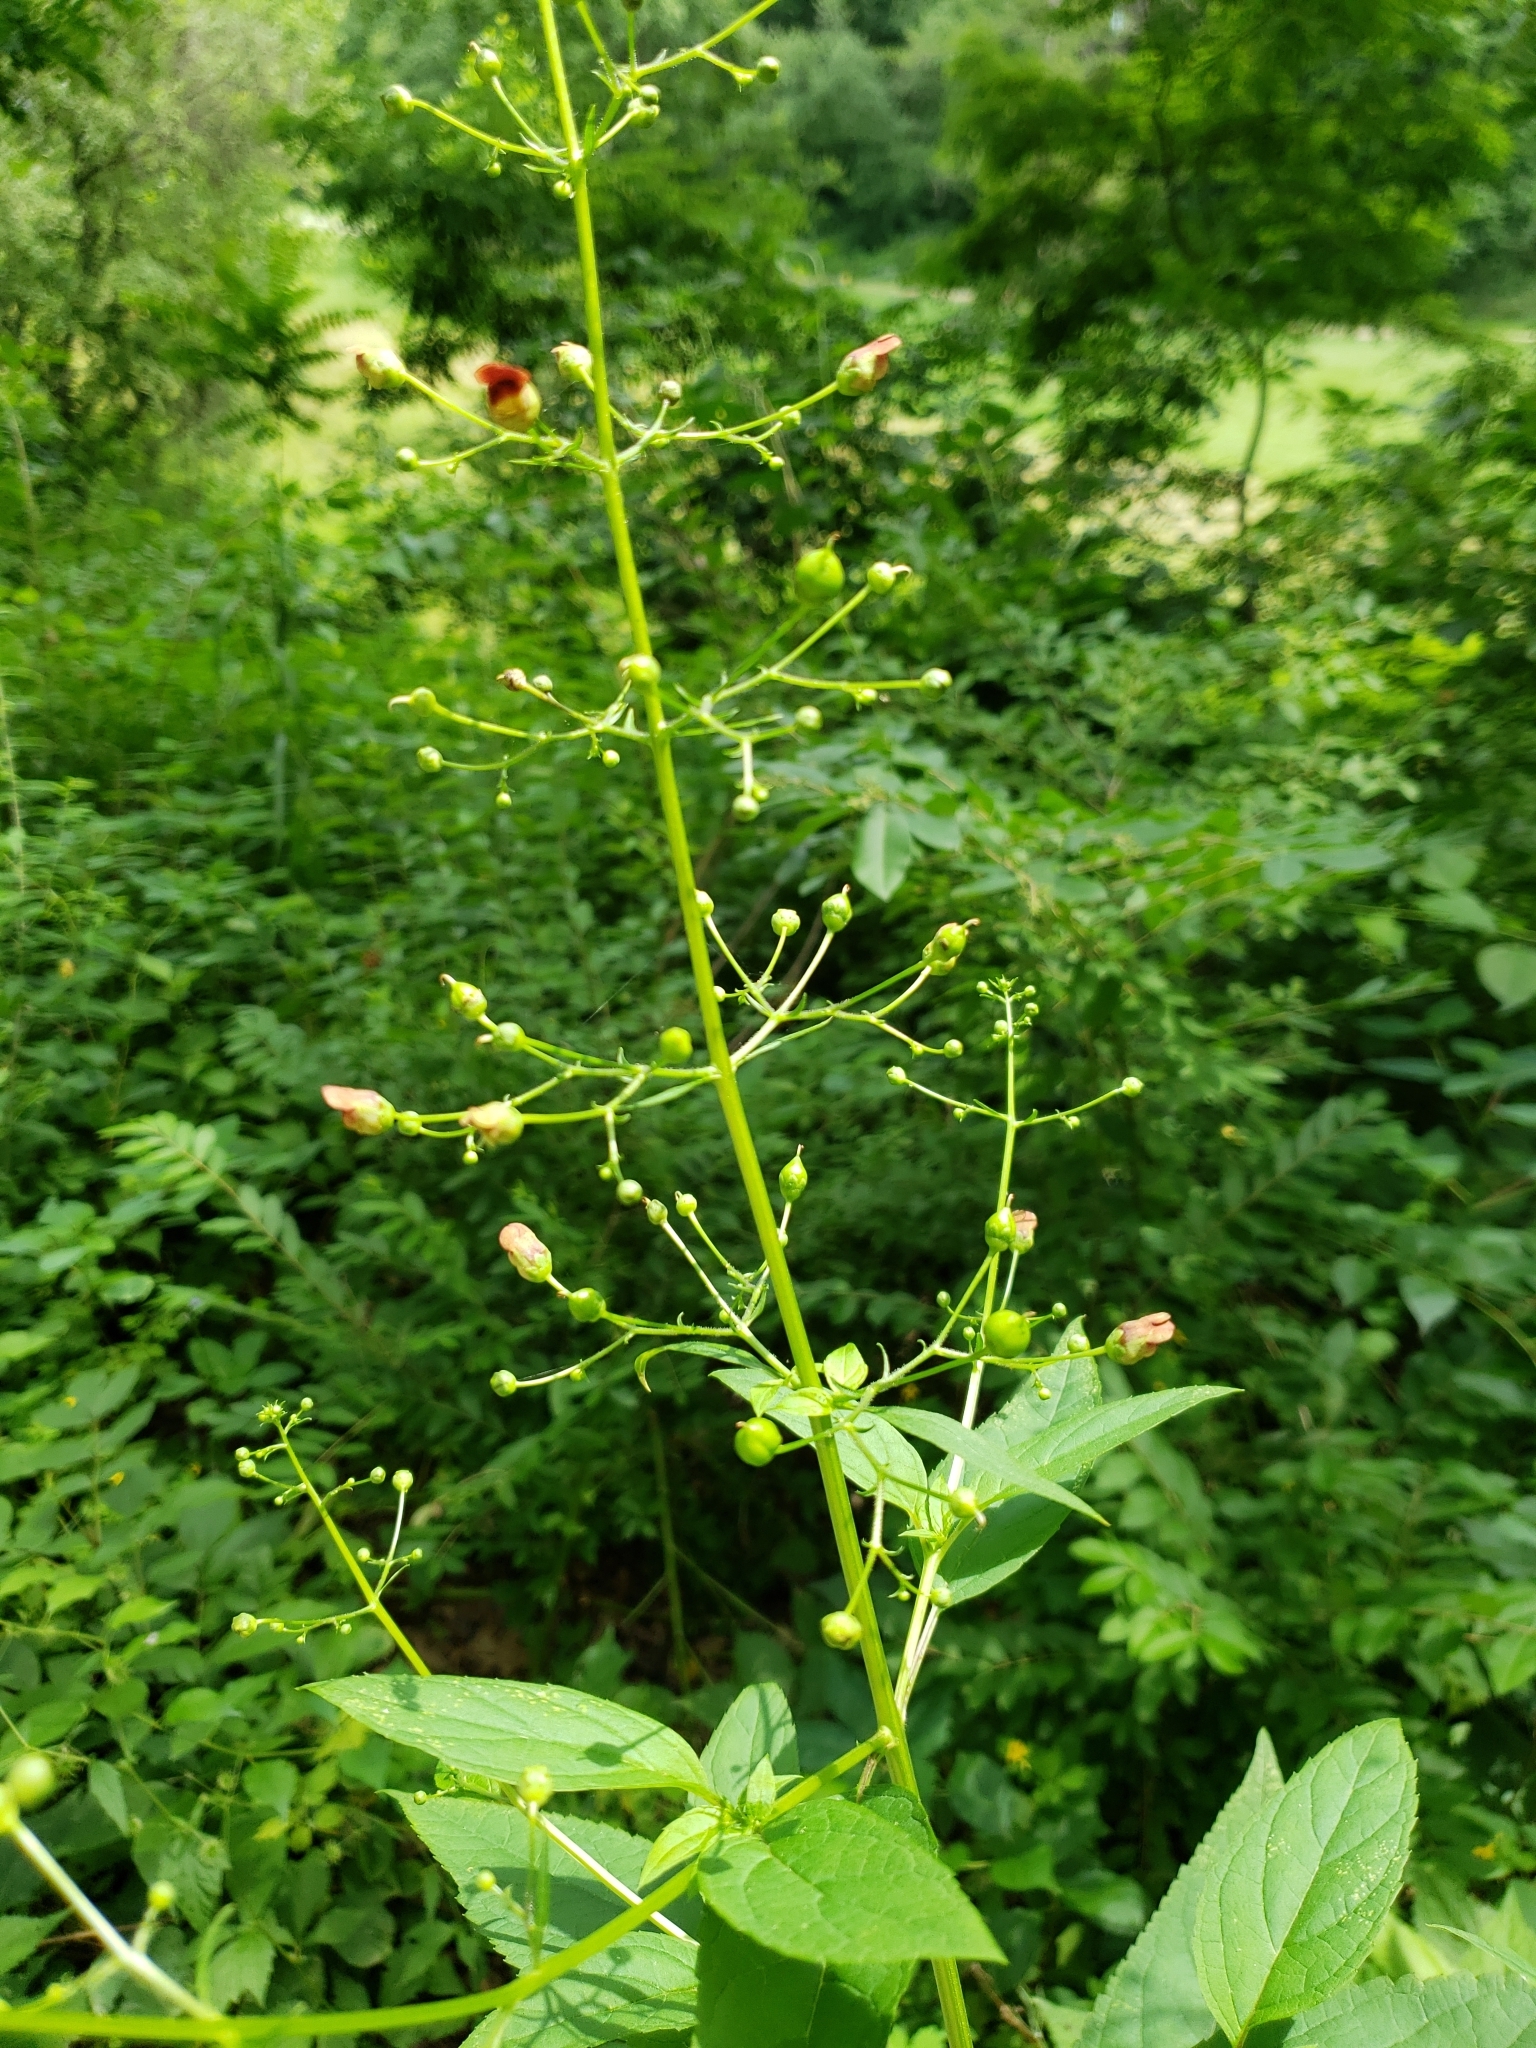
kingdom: Plantae
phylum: Tracheophyta
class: Magnoliopsida
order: Lamiales
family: Scrophulariaceae
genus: Scrophularia
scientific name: Scrophularia marilandica
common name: Eastern figwort
